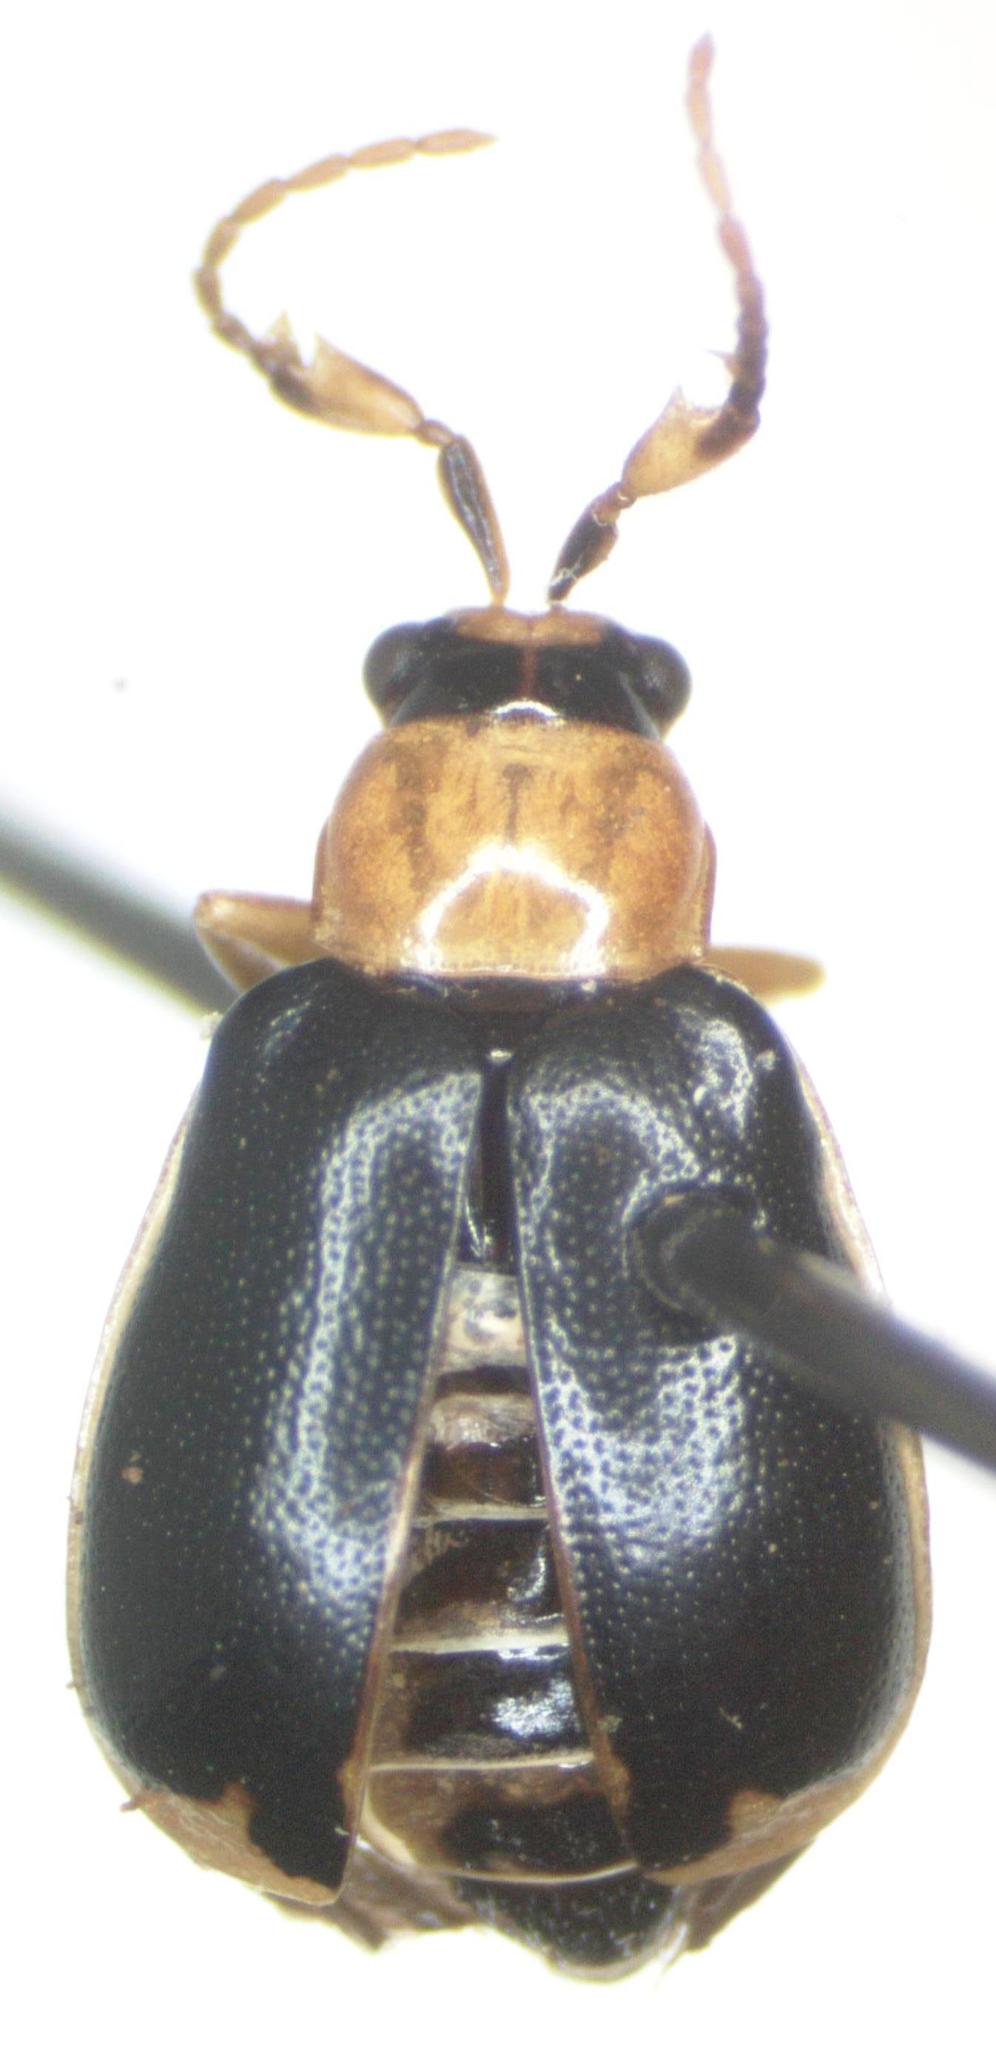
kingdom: Animalia
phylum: Arthropoda
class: Insecta
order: Coleoptera
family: Chrysomelidae
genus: Cerotoma
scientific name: Cerotoma atrofasciata
